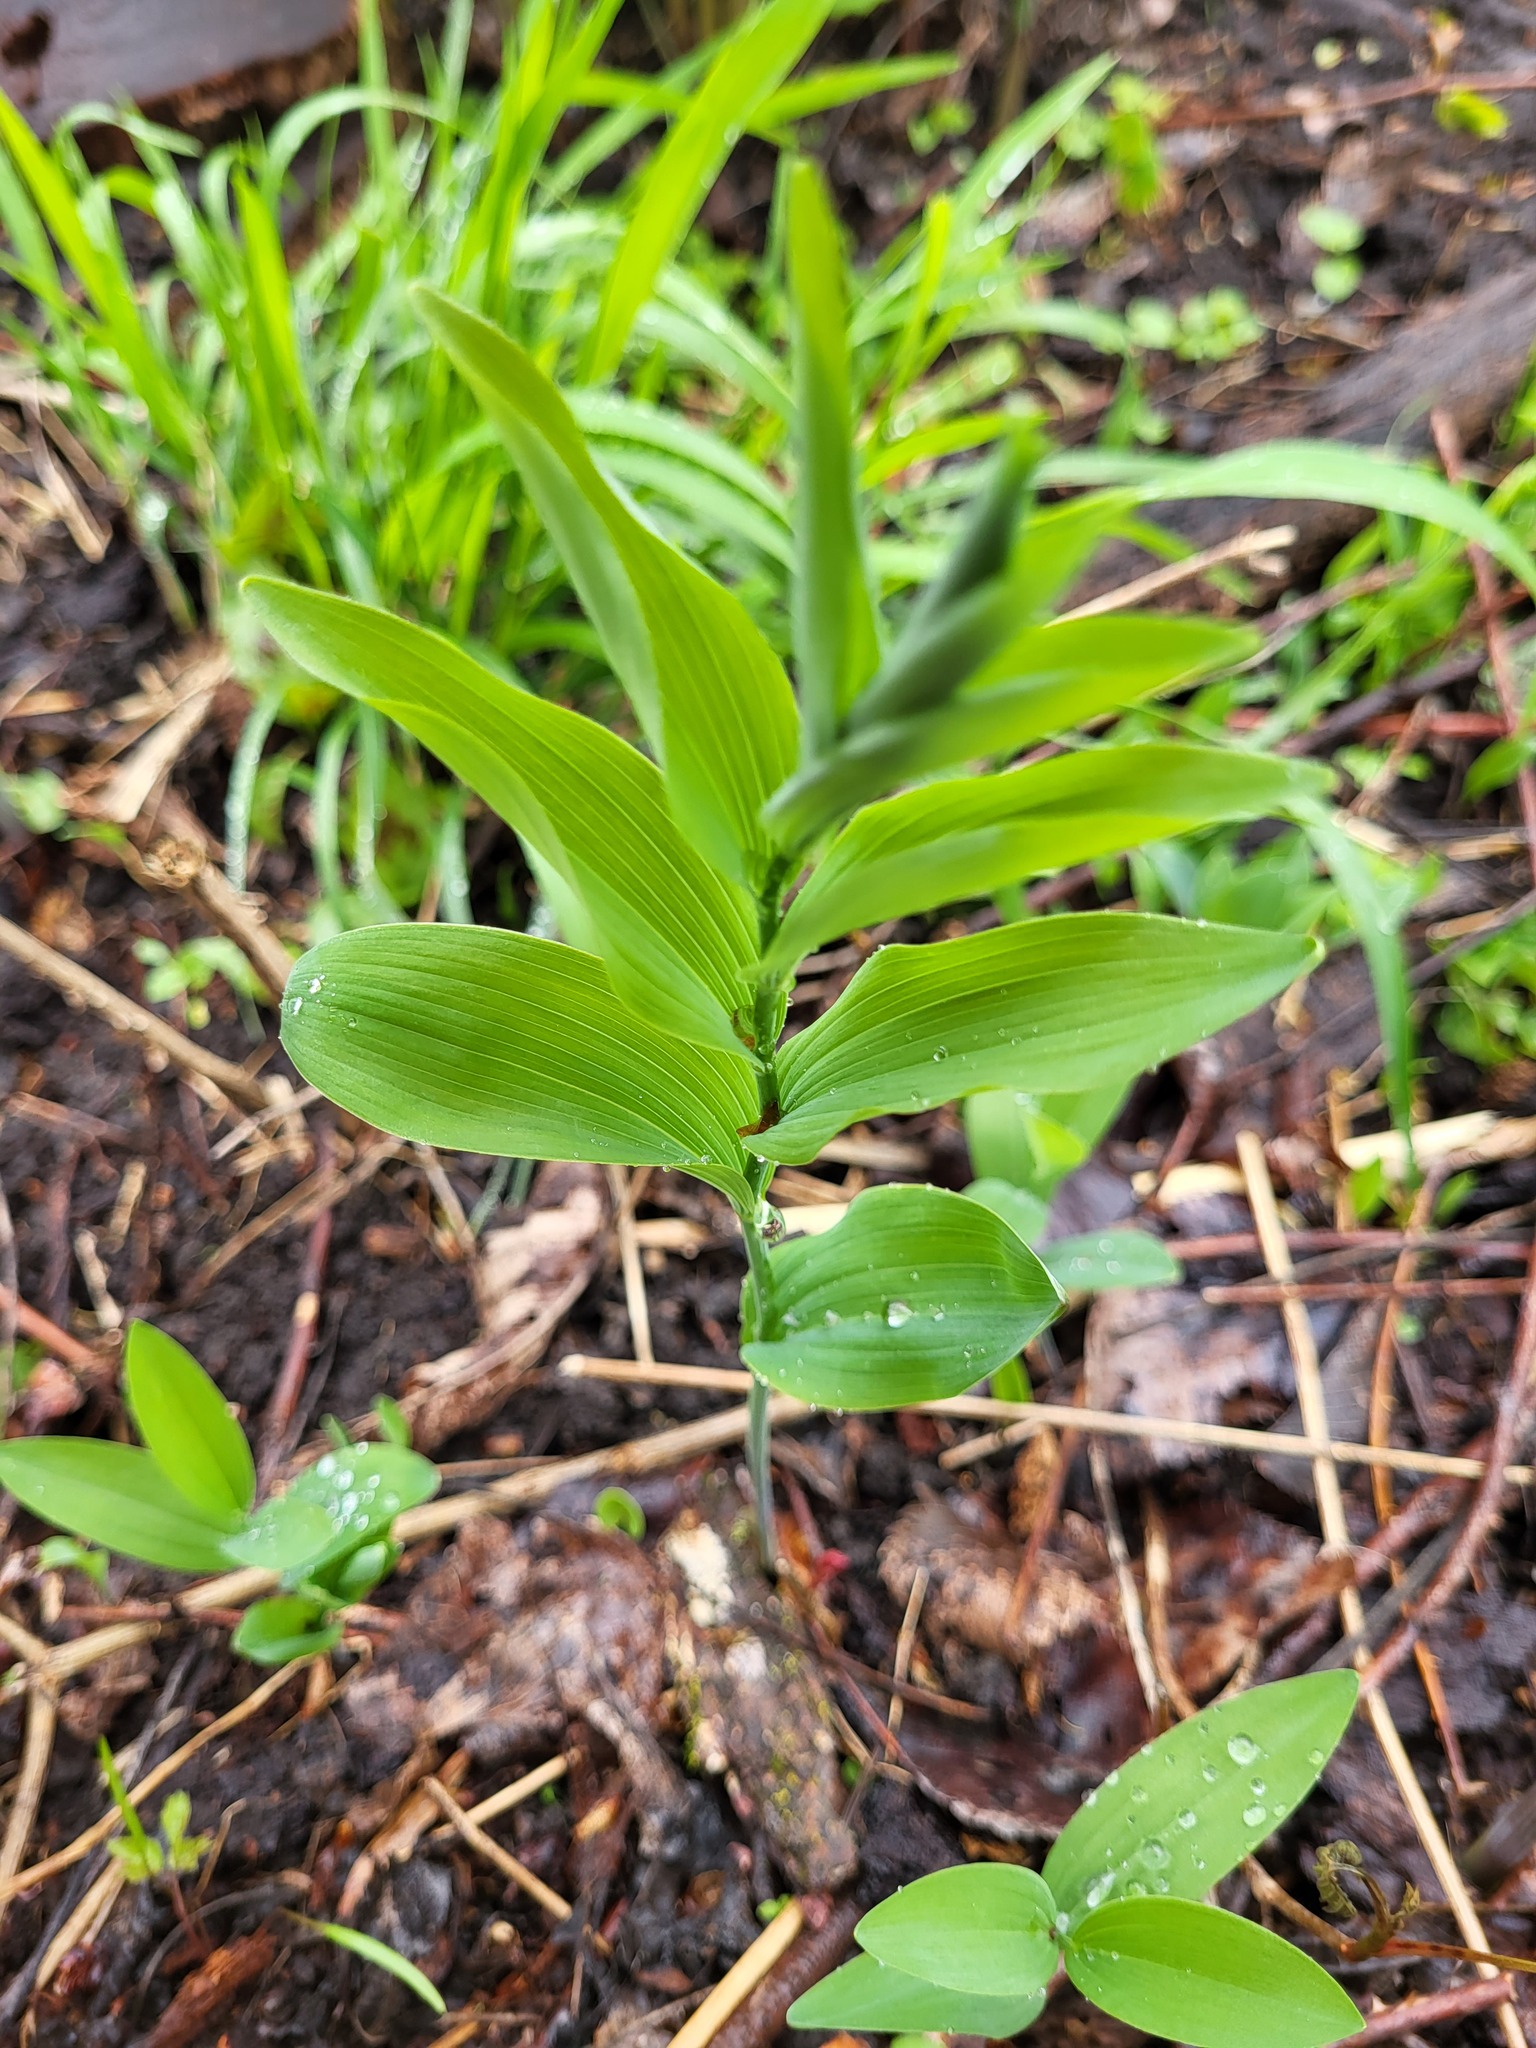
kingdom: Plantae
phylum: Tracheophyta
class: Liliopsida
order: Asparagales
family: Asparagaceae
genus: Polygonatum
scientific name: Polygonatum biflorum
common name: American solomon's-seal
